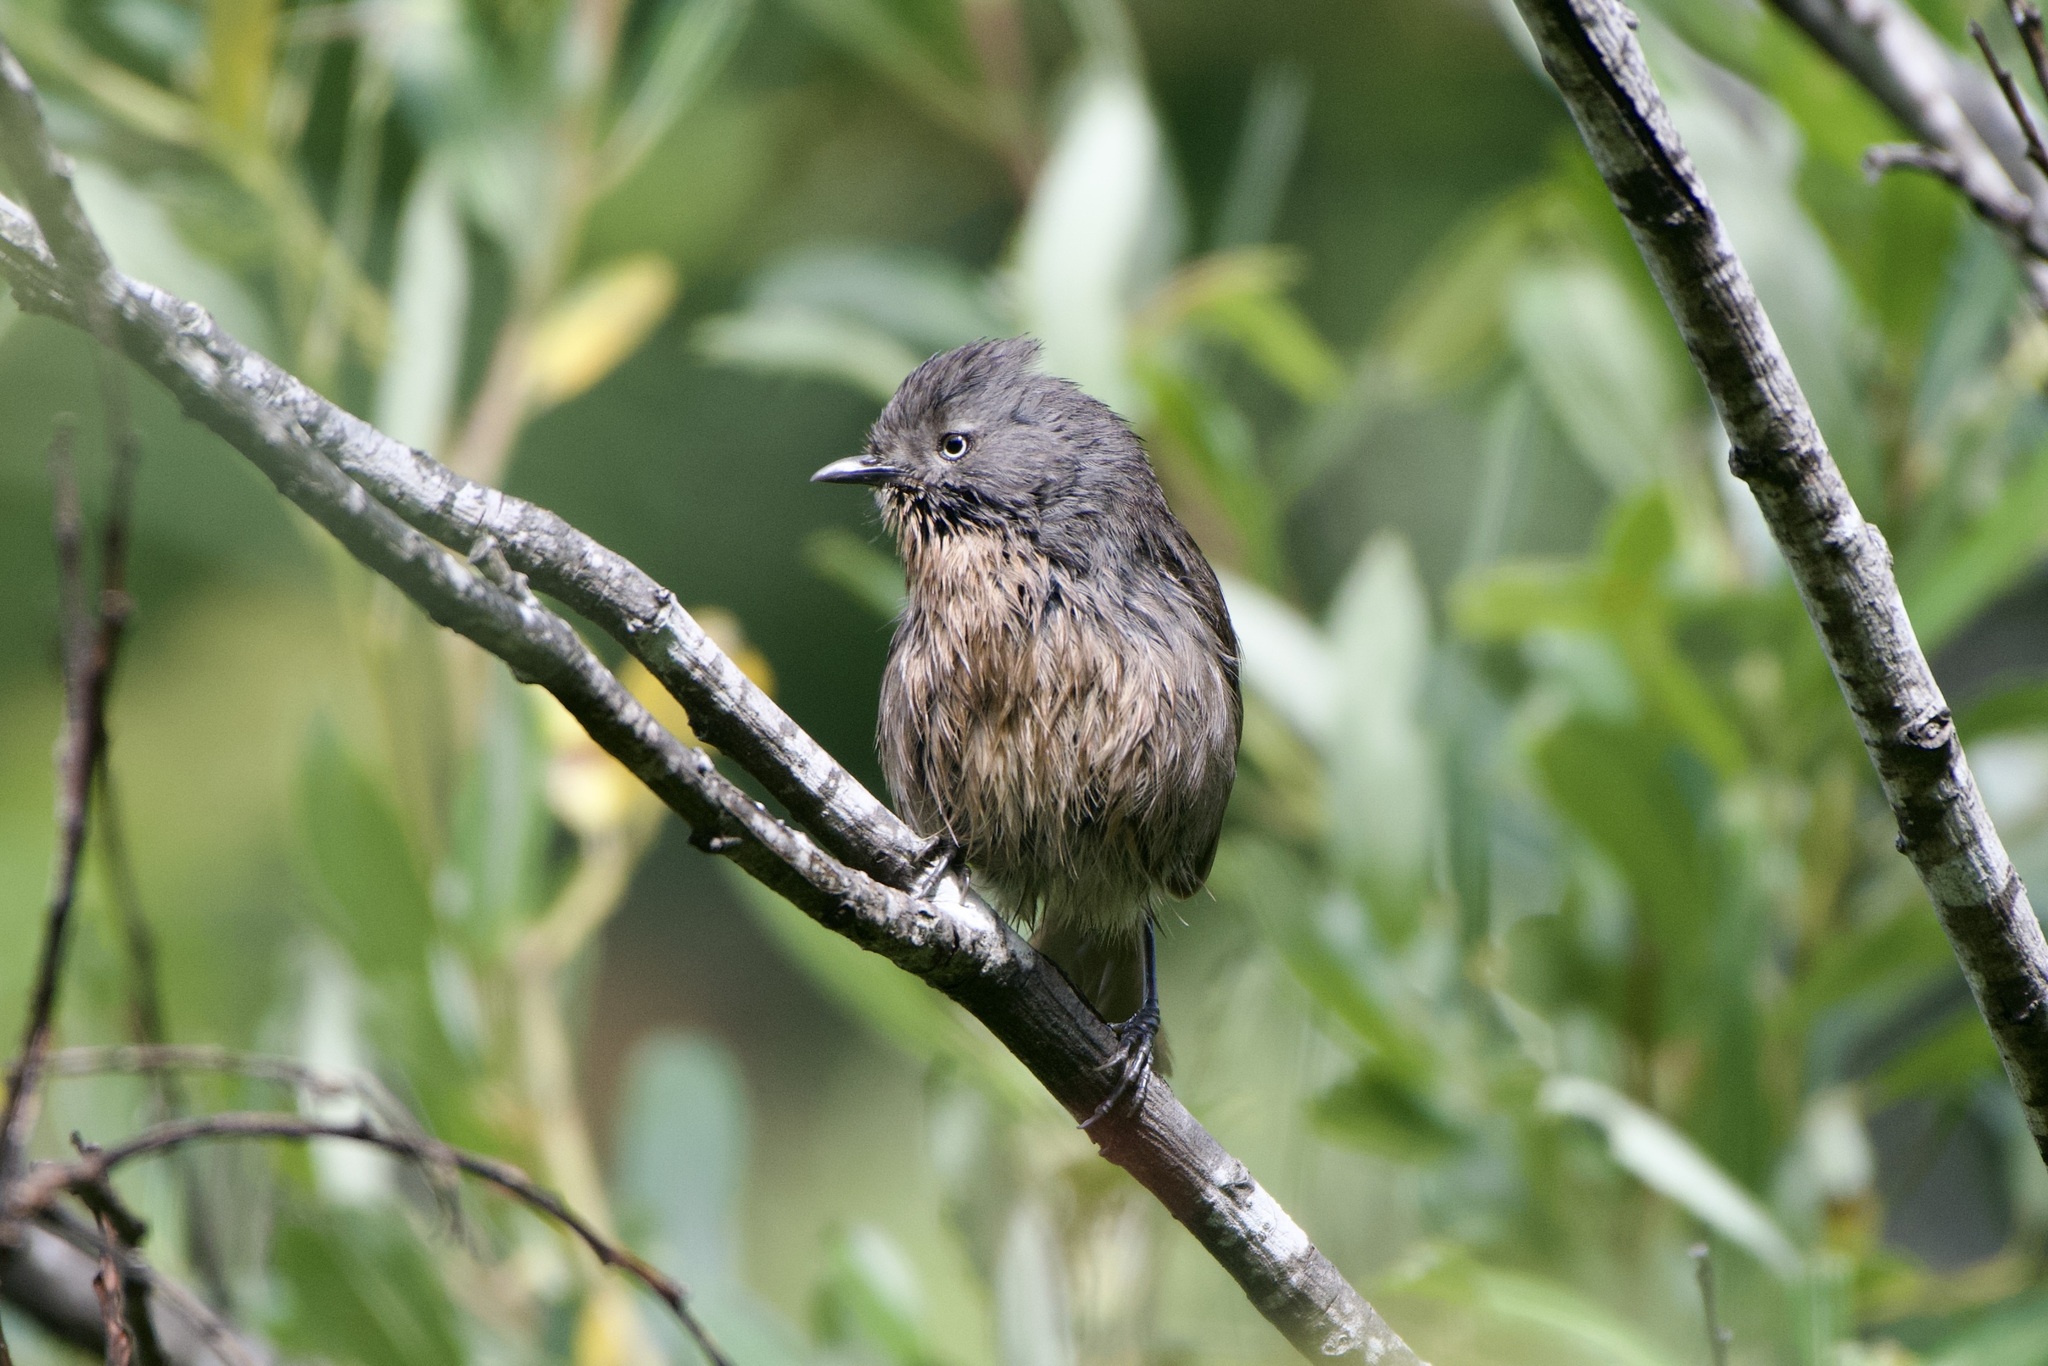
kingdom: Animalia
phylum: Chordata
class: Aves
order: Passeriformes
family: Sylviidae
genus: Chamaea
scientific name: Chamaea fasciata
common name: Wrentit
